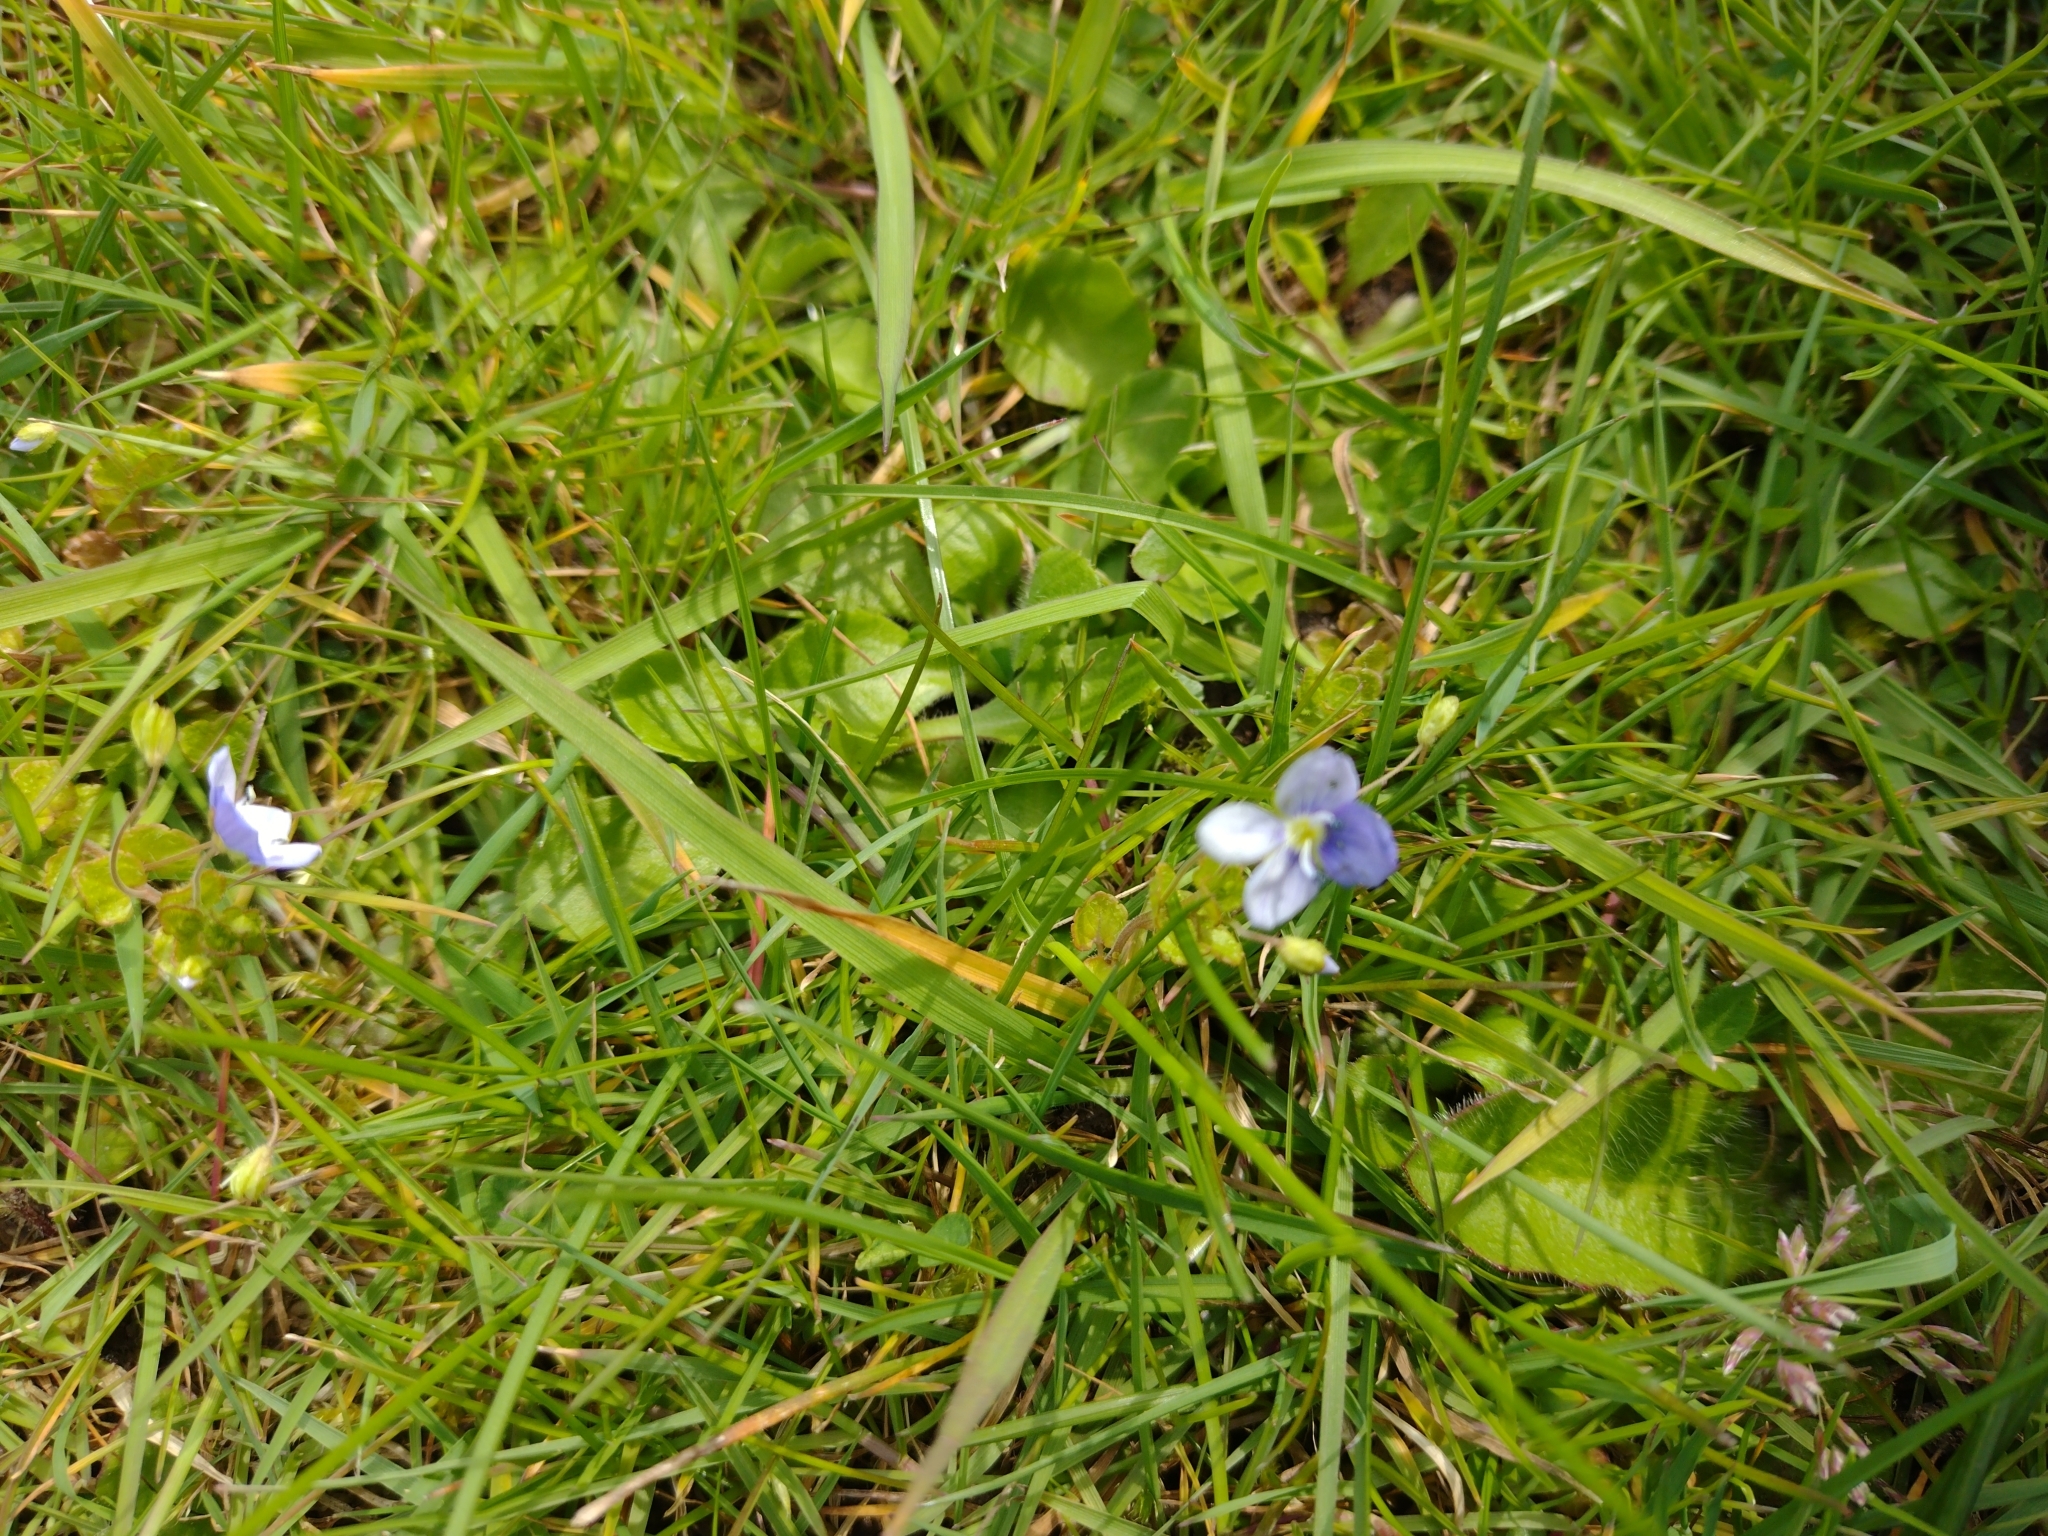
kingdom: Plantae
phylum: Tracheophyta
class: Magnoliopsida
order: Lamiales
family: Plantaginaceae
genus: Veronica
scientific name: Veronica filiformis
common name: Slender speedwell
